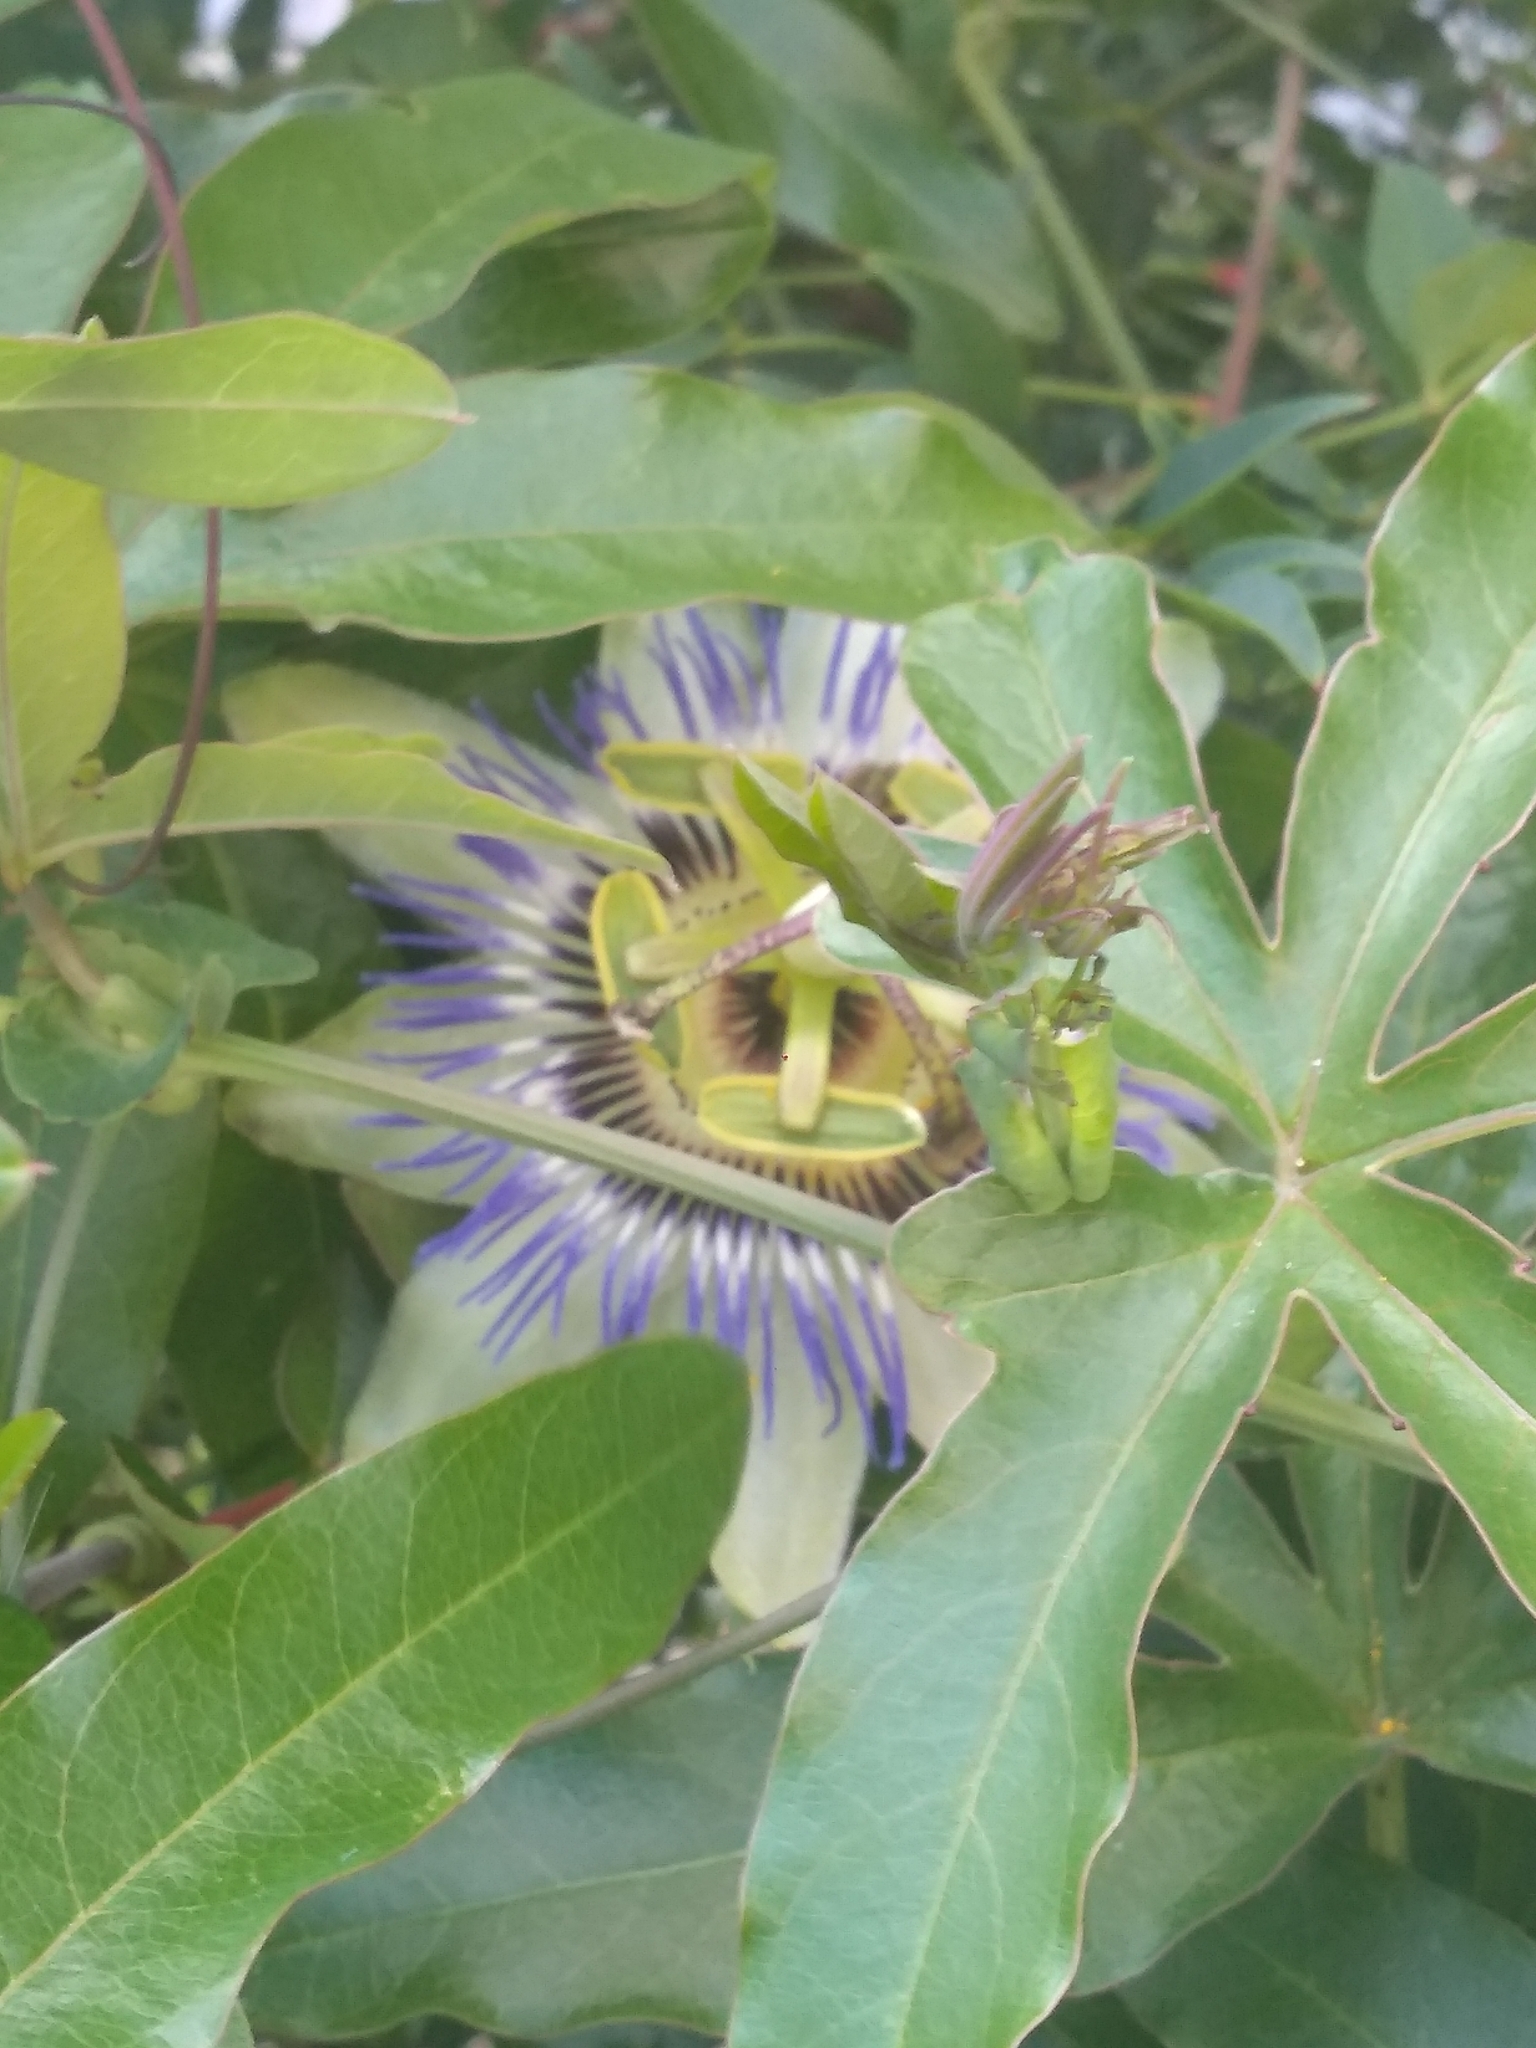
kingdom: Plantae
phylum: Tracheophyta
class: Magnoliopsida
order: Malpighiales
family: Passifloraceae
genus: Passiflora
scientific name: Passiflora caerulea
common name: Blue passionflower
